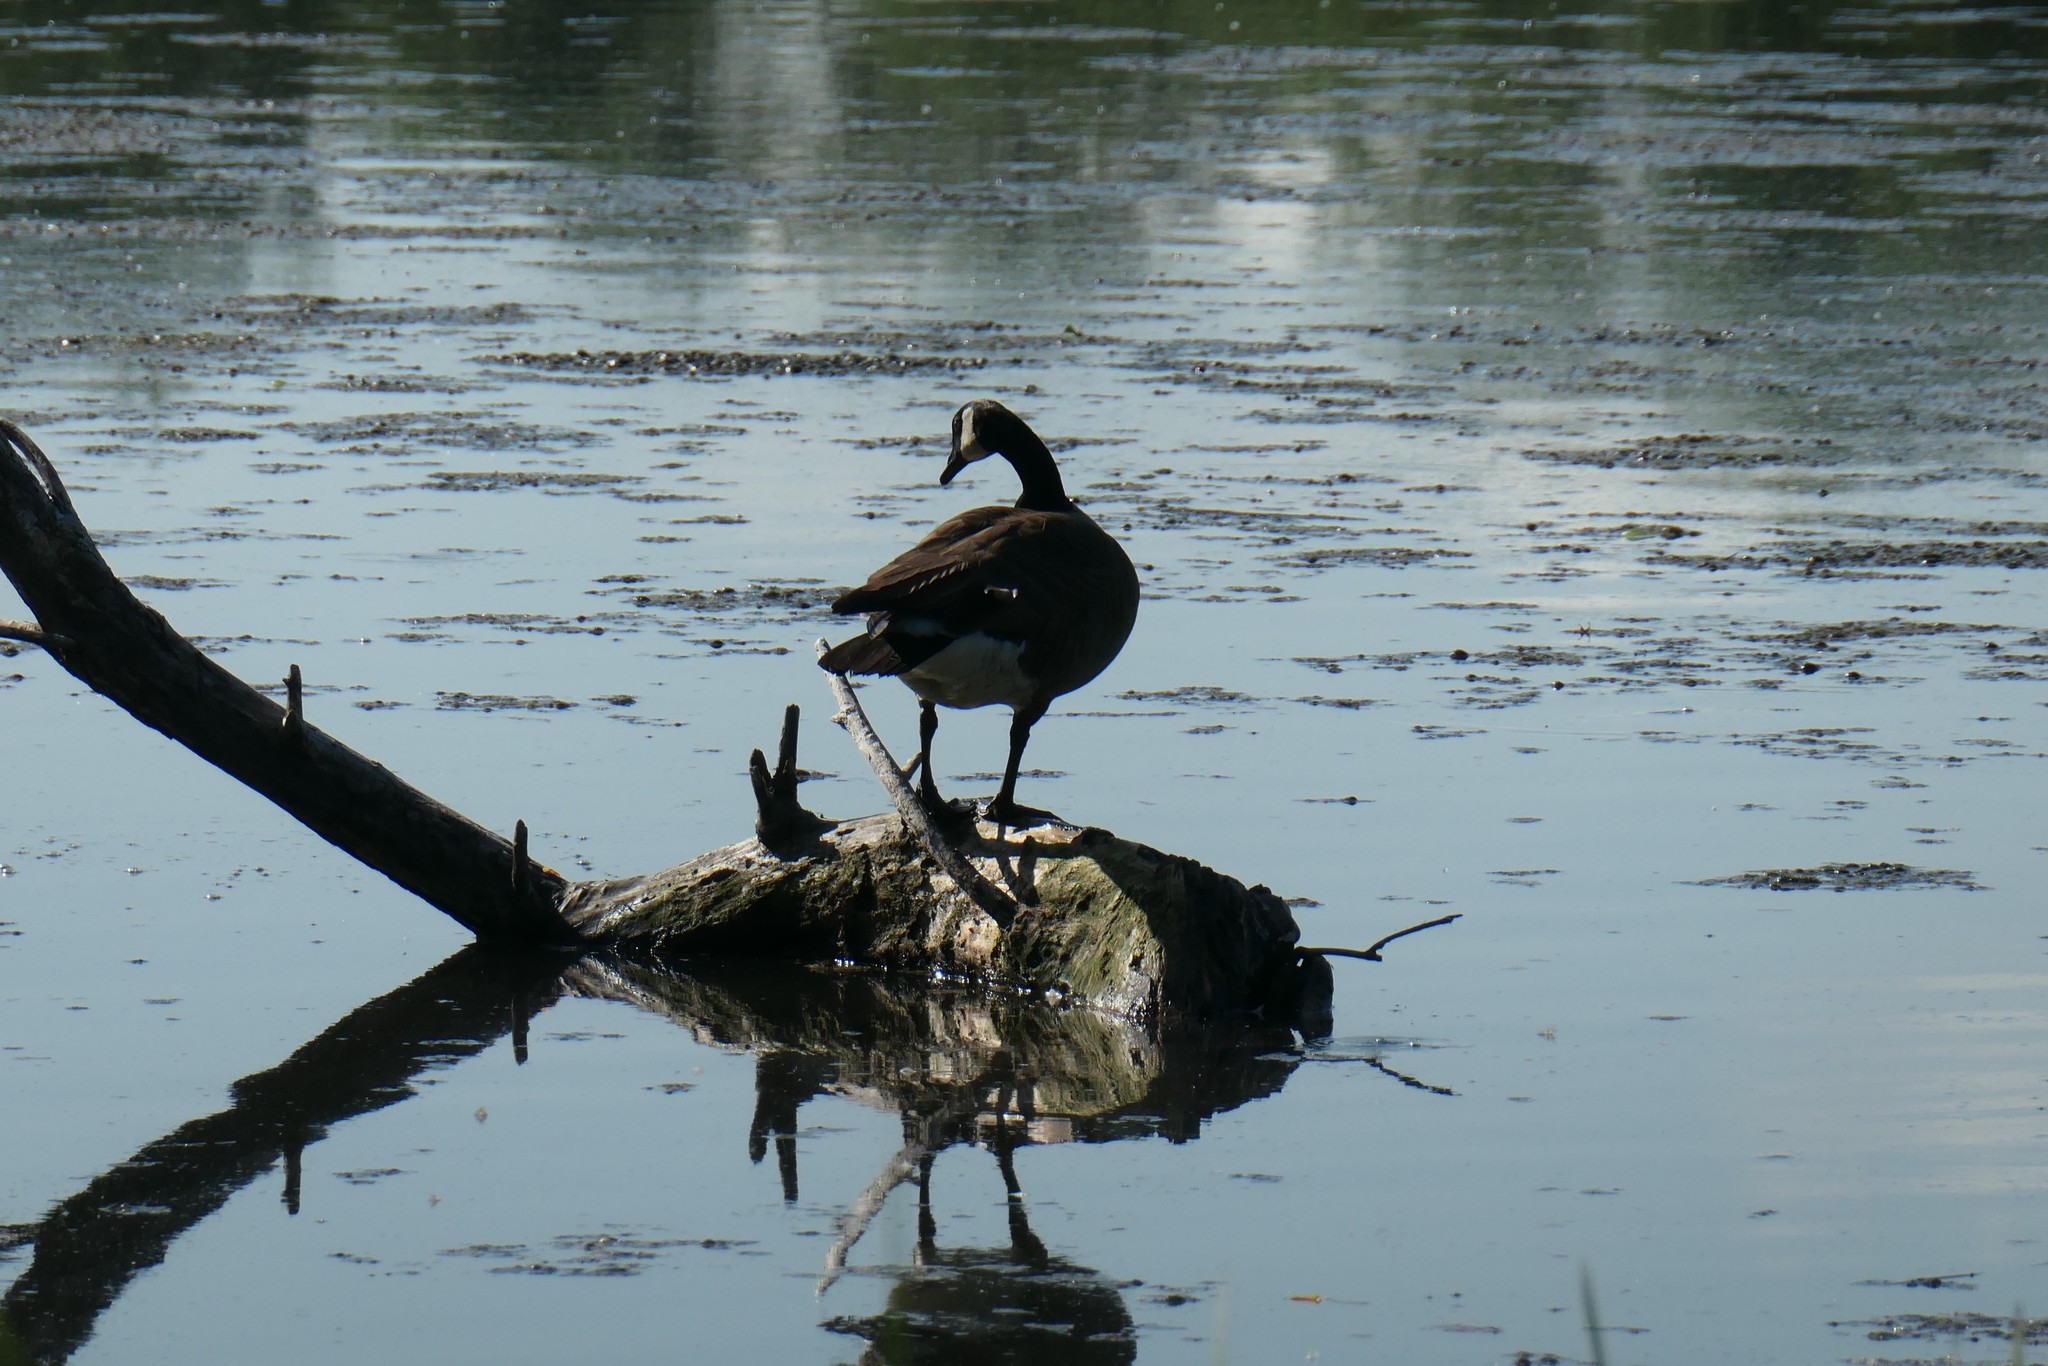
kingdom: Animalia
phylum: Chordata
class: Aves
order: Anseriformes
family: Anatidae
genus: Branta
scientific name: Branta canadensis
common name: Canada goose
